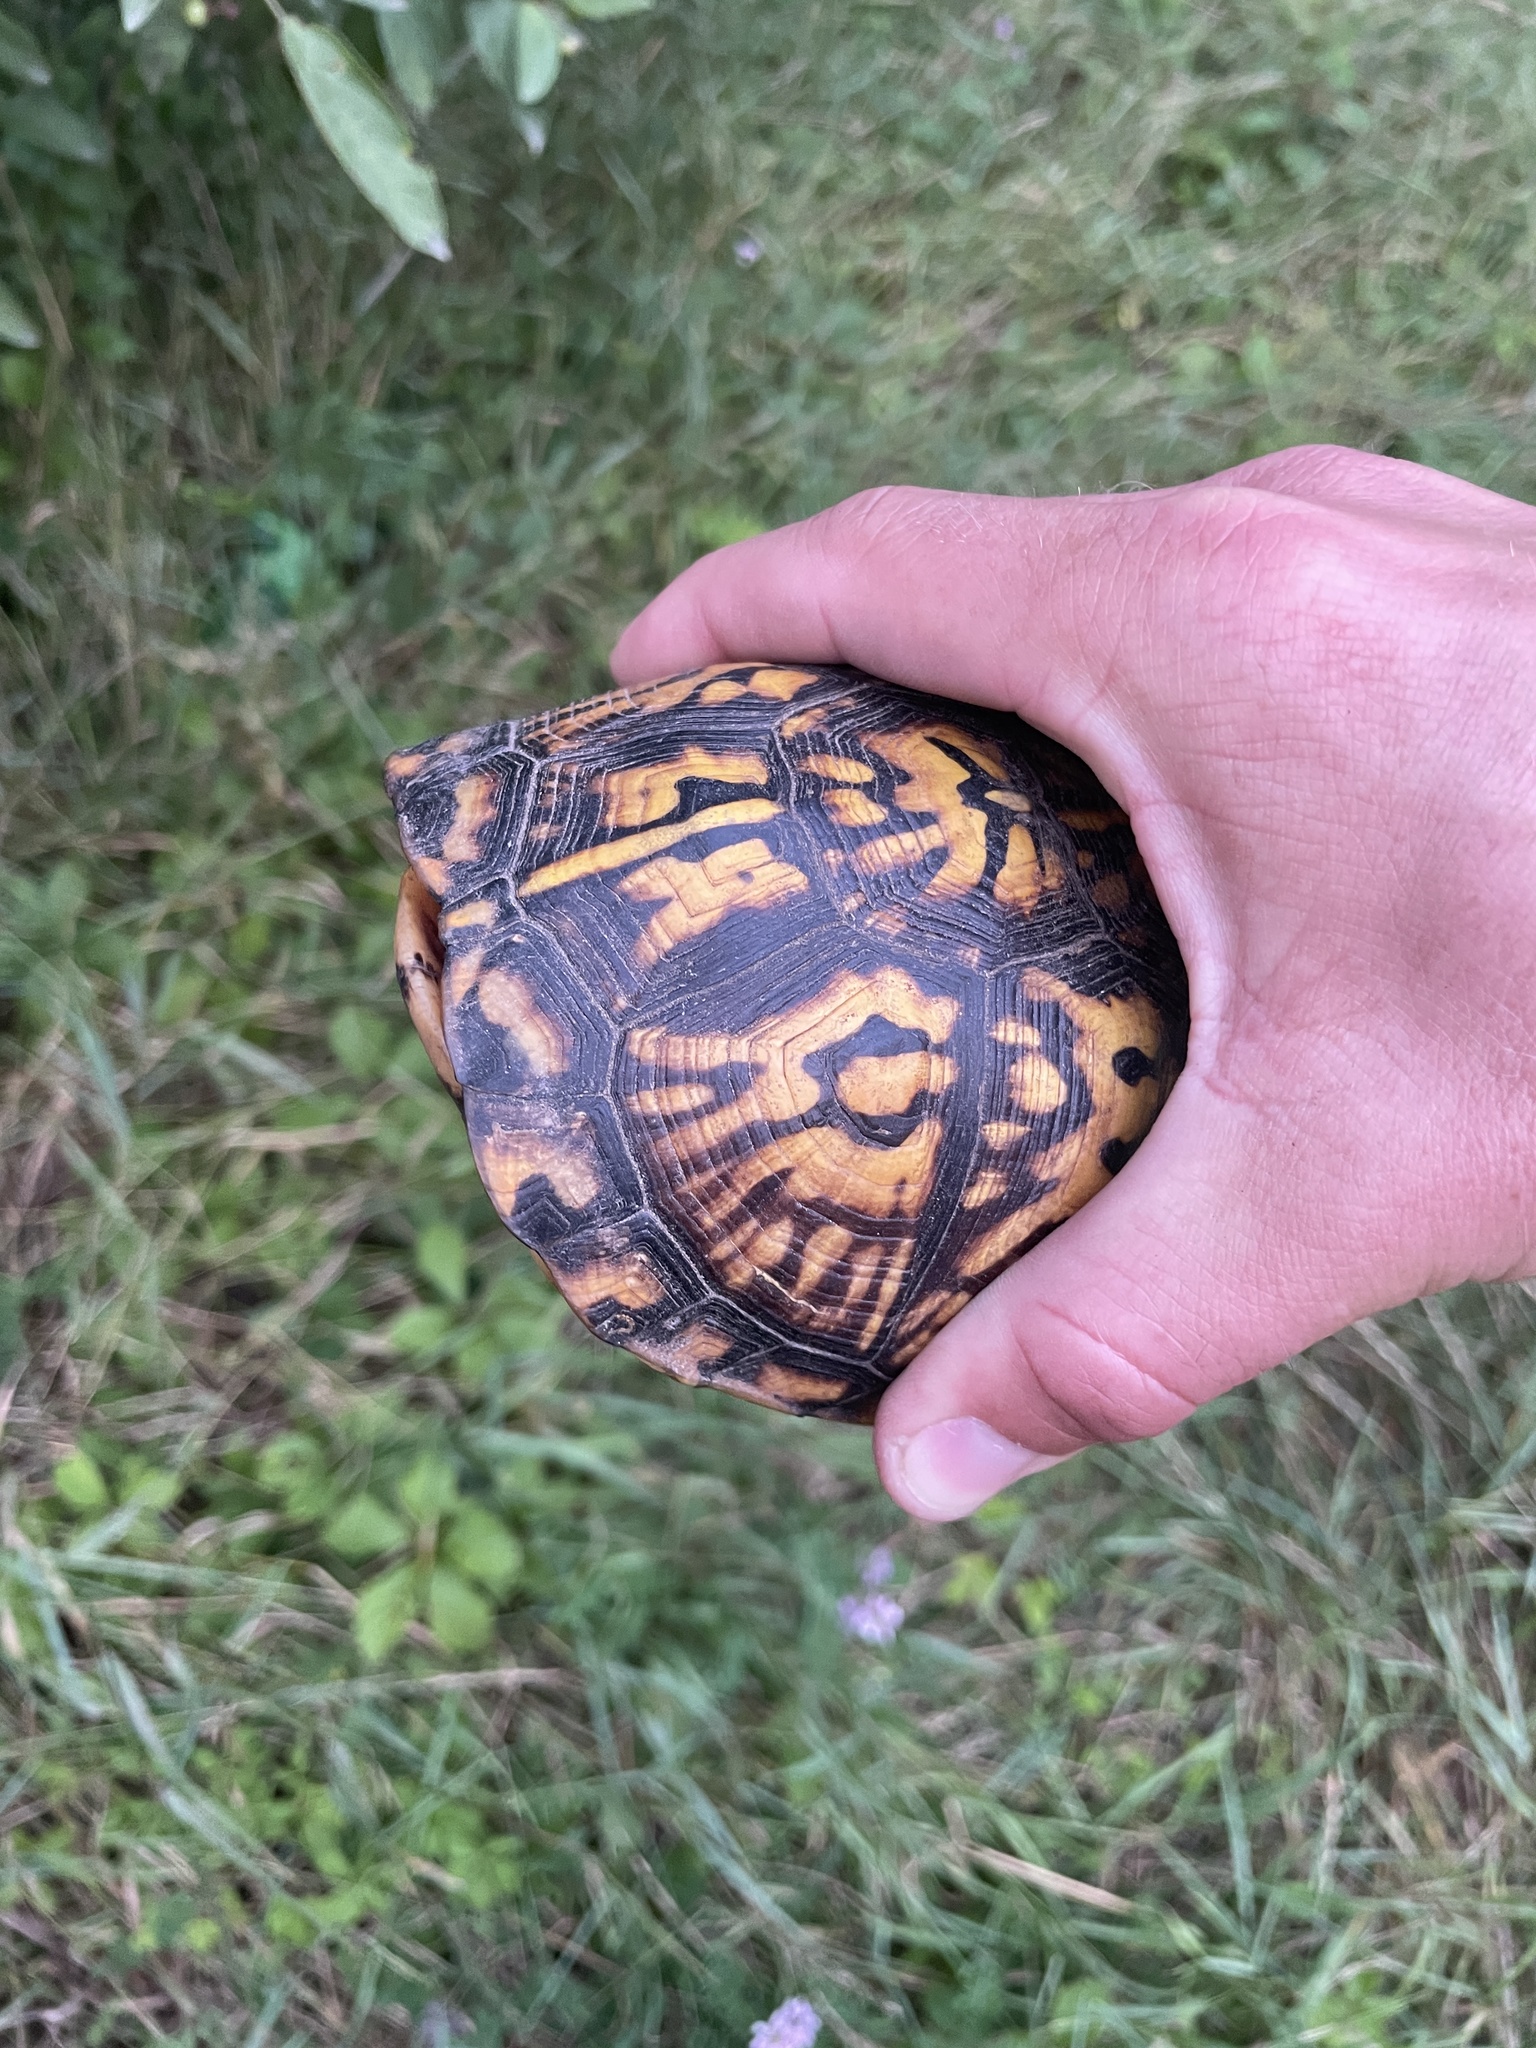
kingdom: Animalia
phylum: Chordata
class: Testudines
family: Emydidae
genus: Terrapene
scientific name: Terrapene carolina
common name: Common box turtle
